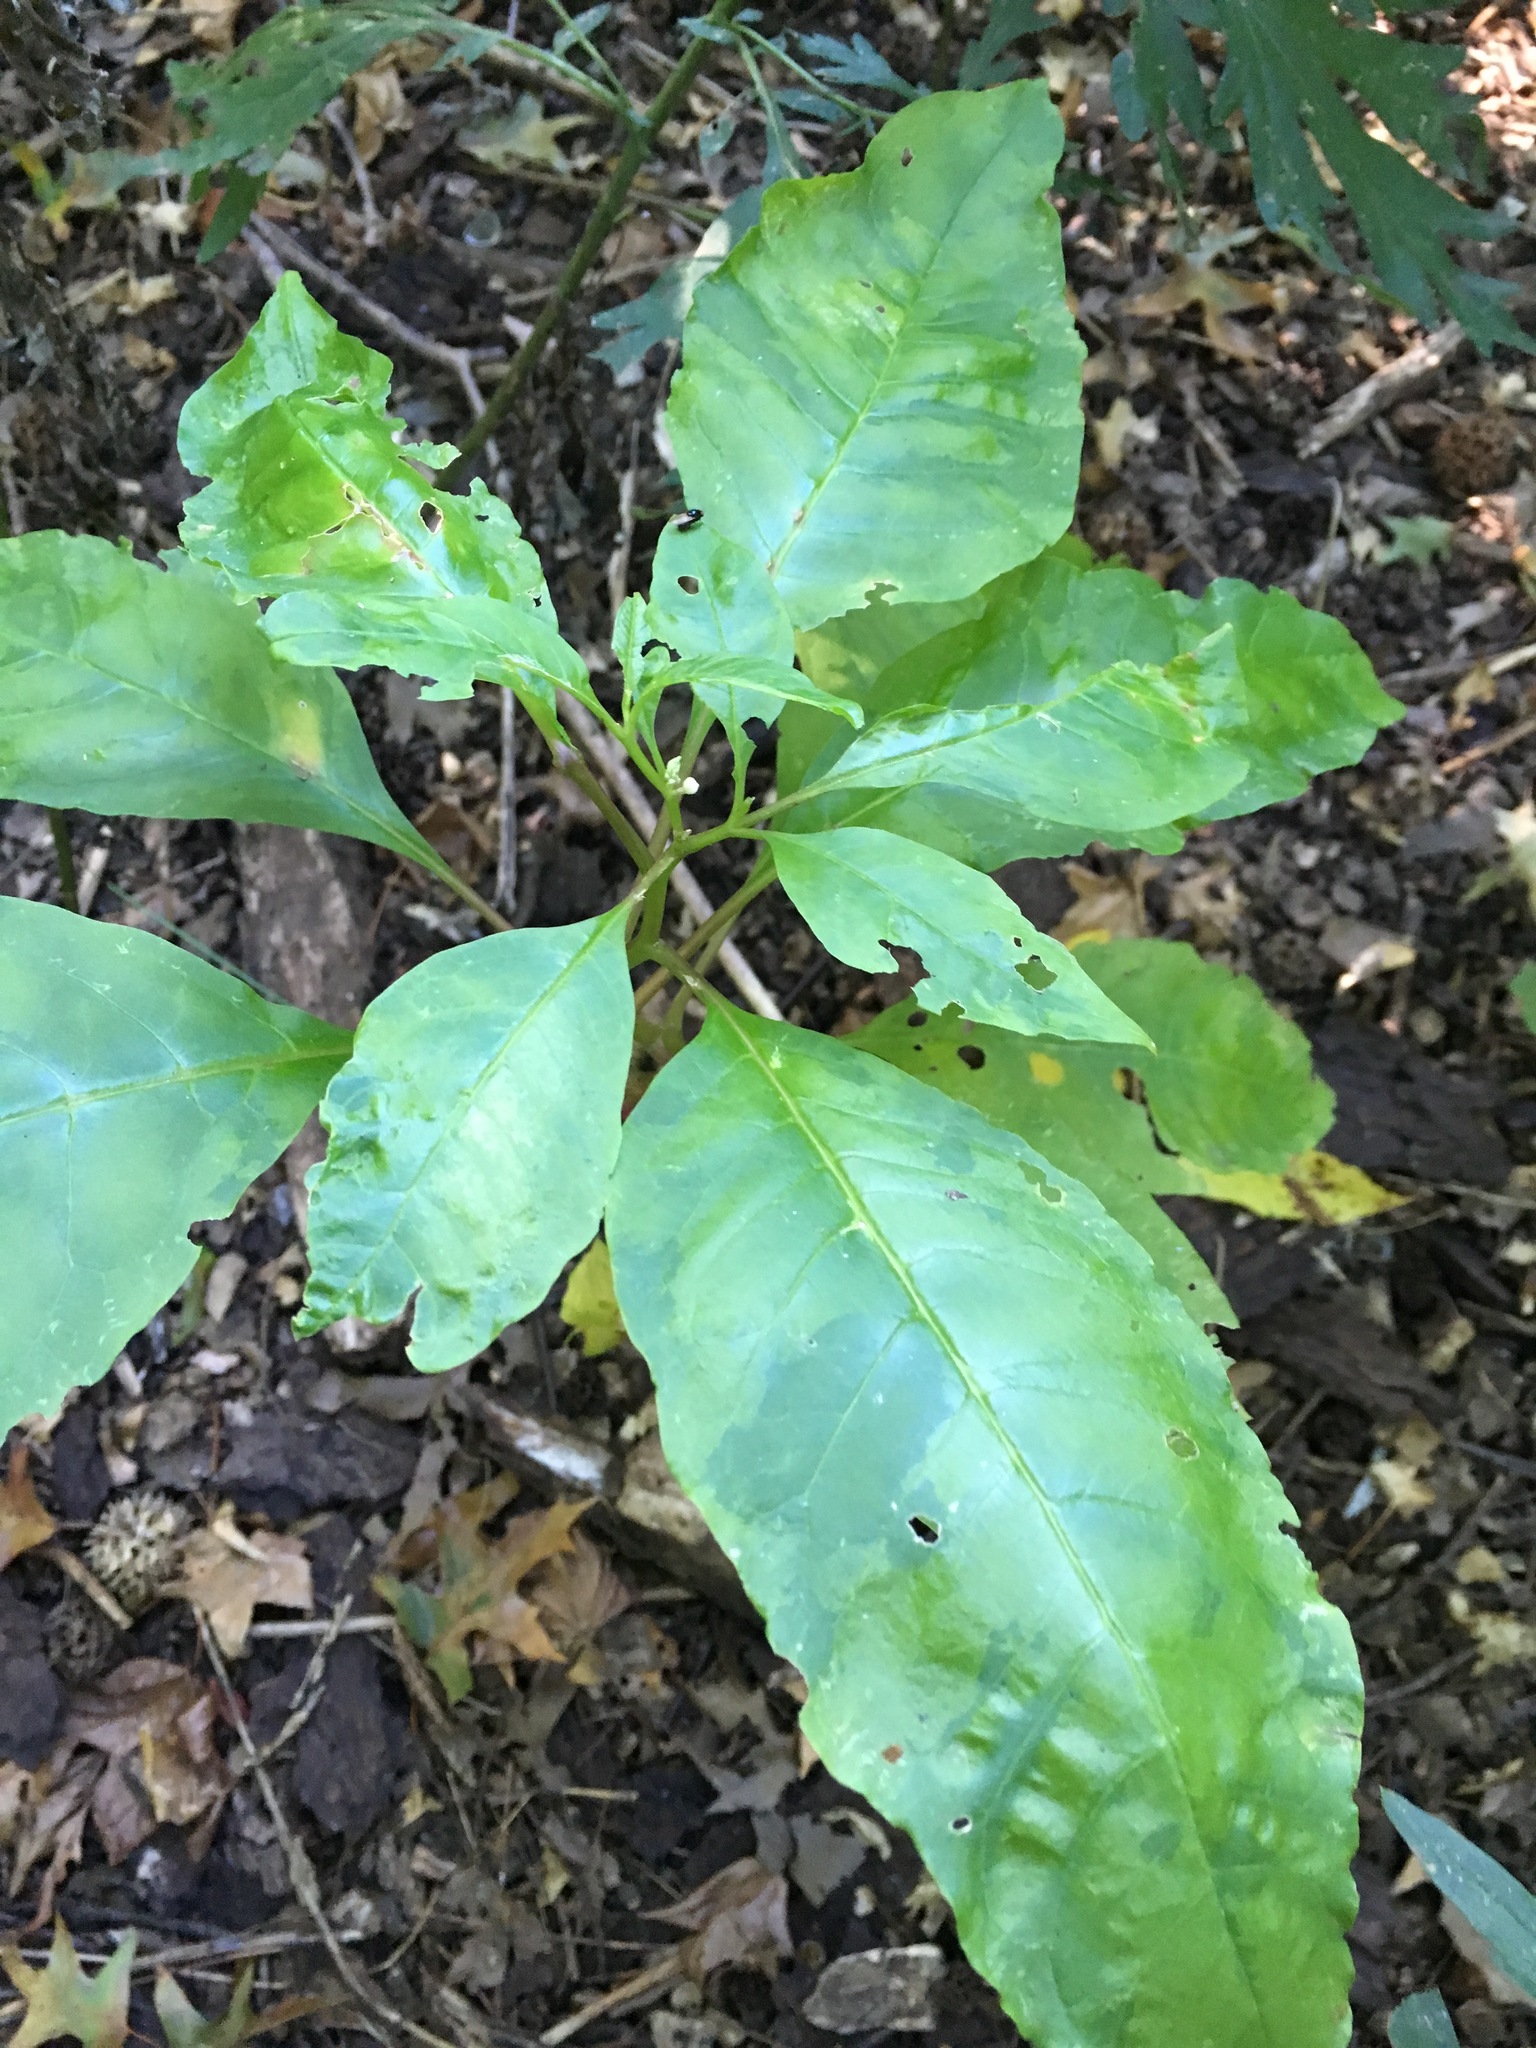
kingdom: Plantae
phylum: Tracheophyta
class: Magnoliopsida
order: Caryophyllales
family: Phytolaccaceae
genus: Phytolacca
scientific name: Phytolacca americana
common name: American pokeweed
